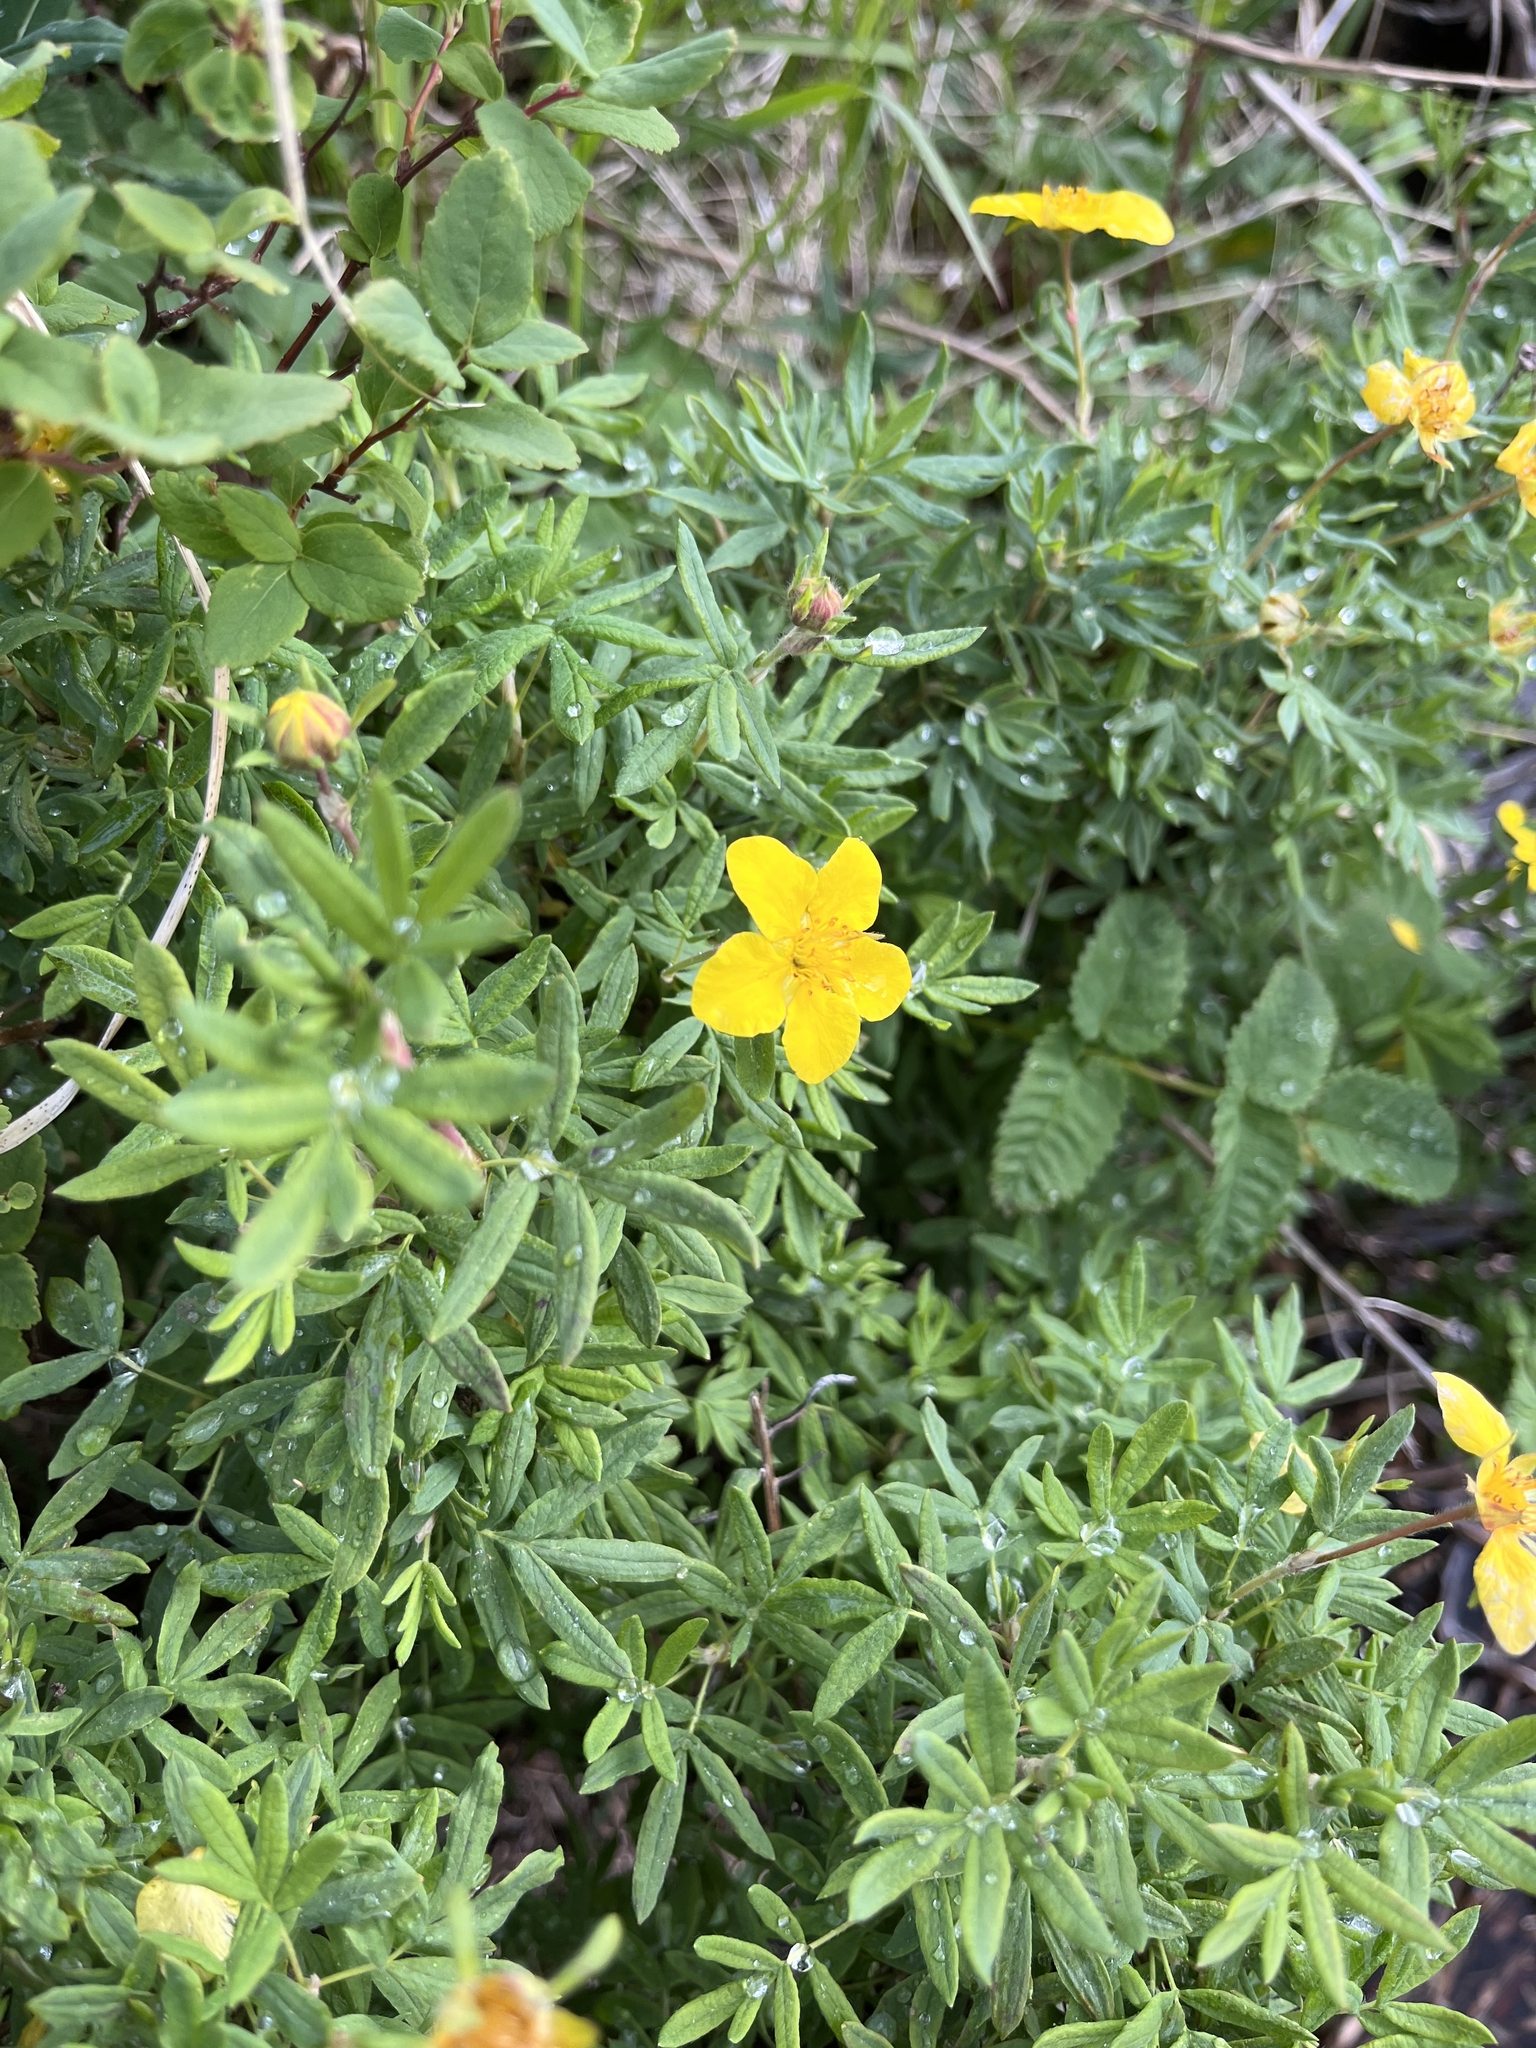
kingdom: Plantae
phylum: Tracheophyta
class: Magnoliopsida
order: Rosales
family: Rosaceae
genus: Dasiphora
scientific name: Dasiphora fruticosa
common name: Shrubby cinquefoil
